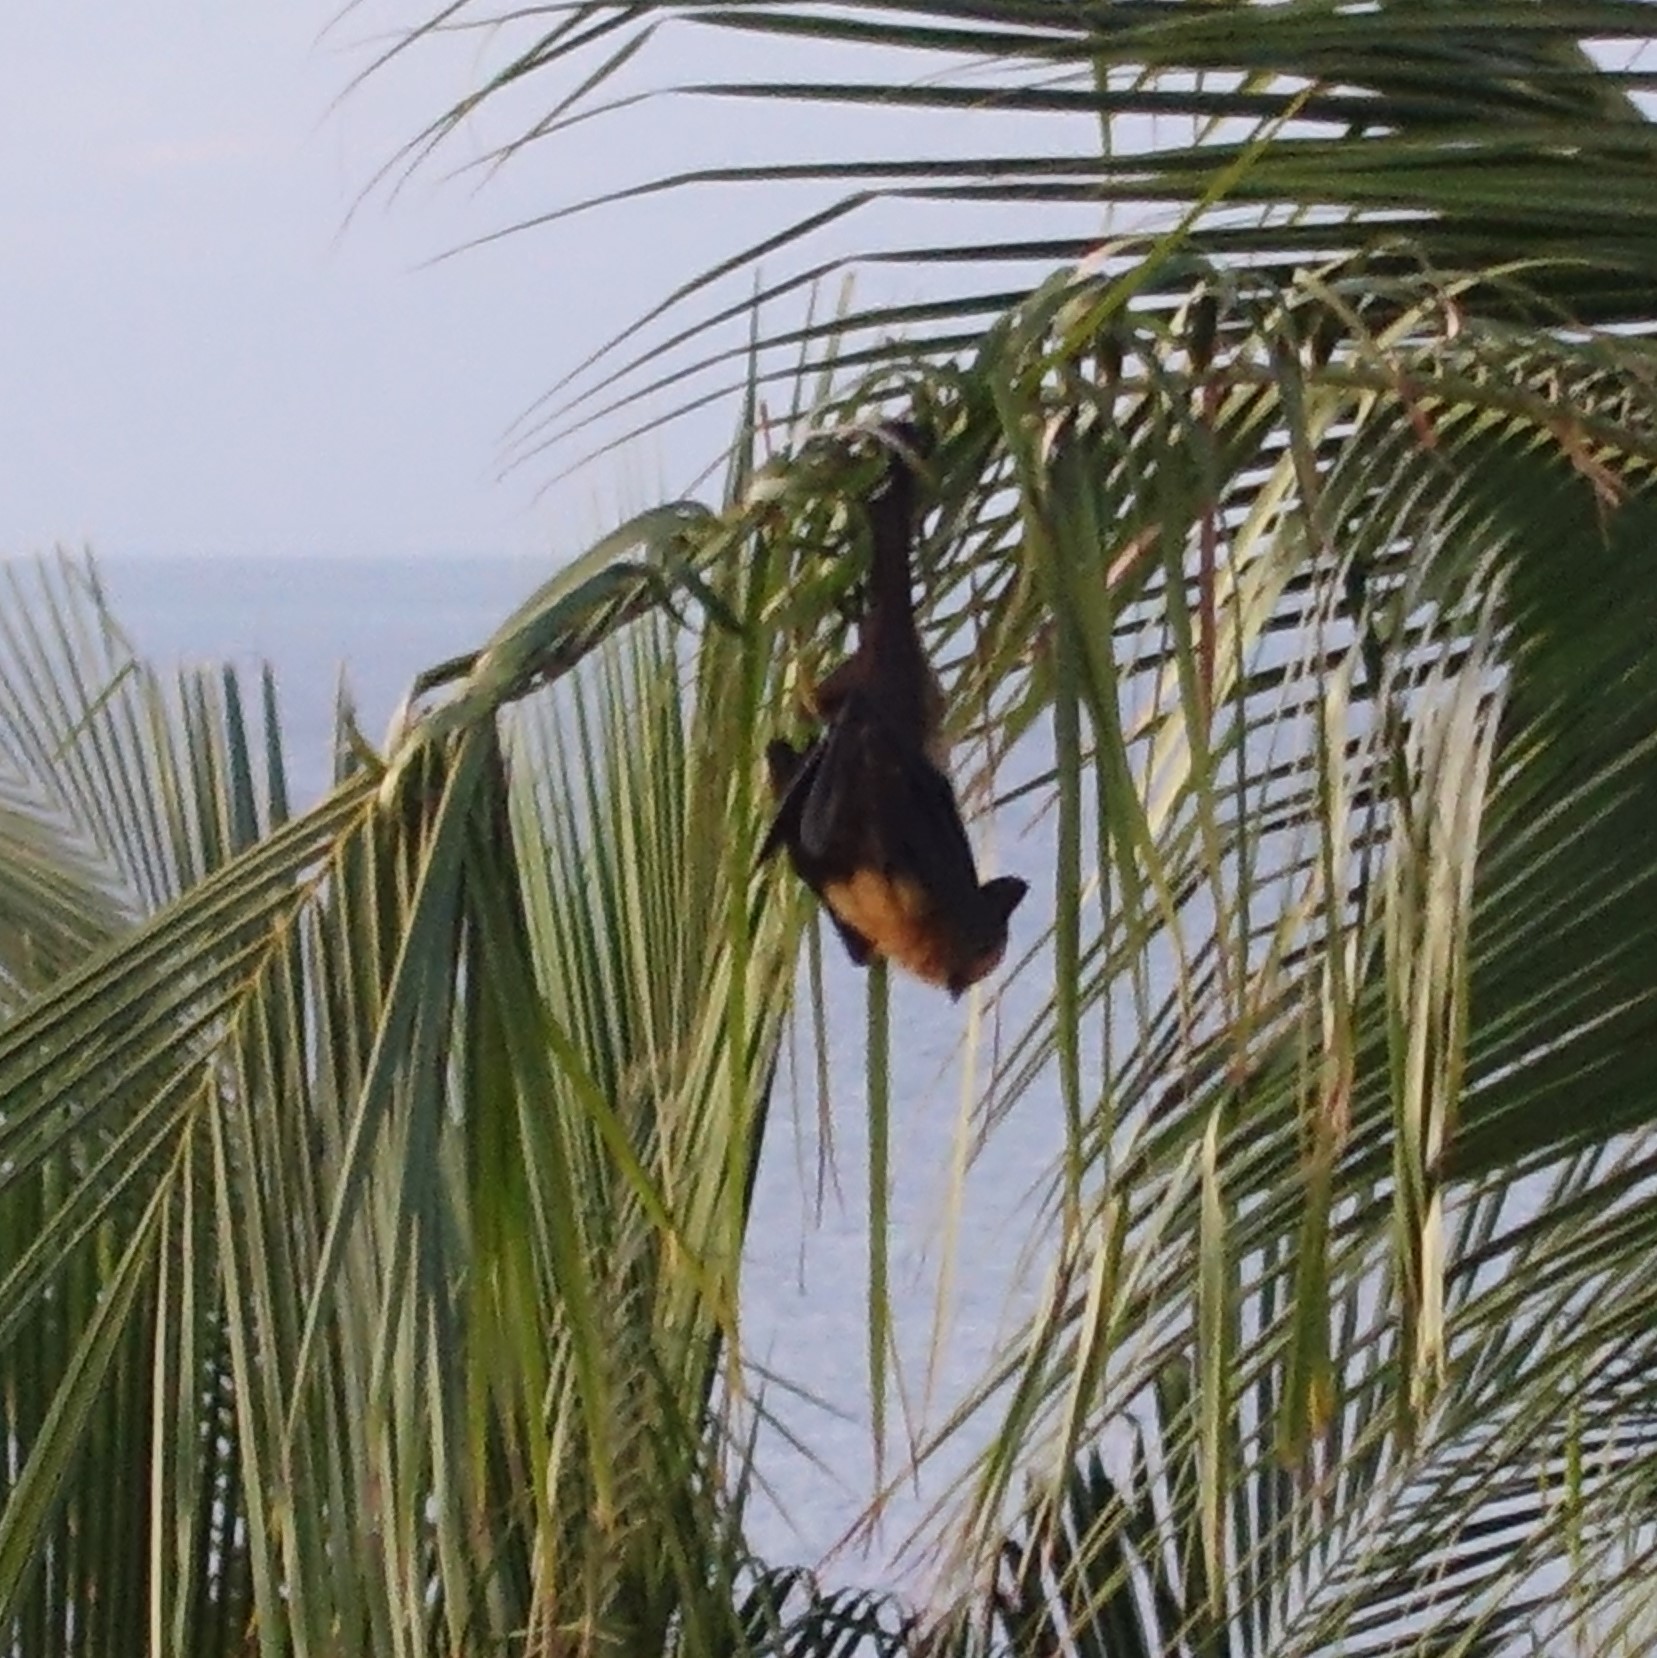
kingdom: Animalia
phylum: Chordata
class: Mammalia
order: Chiroptera
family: Pteropodidae
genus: Pteropus
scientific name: Pteropus seychellensis
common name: Seychelles flying fox
